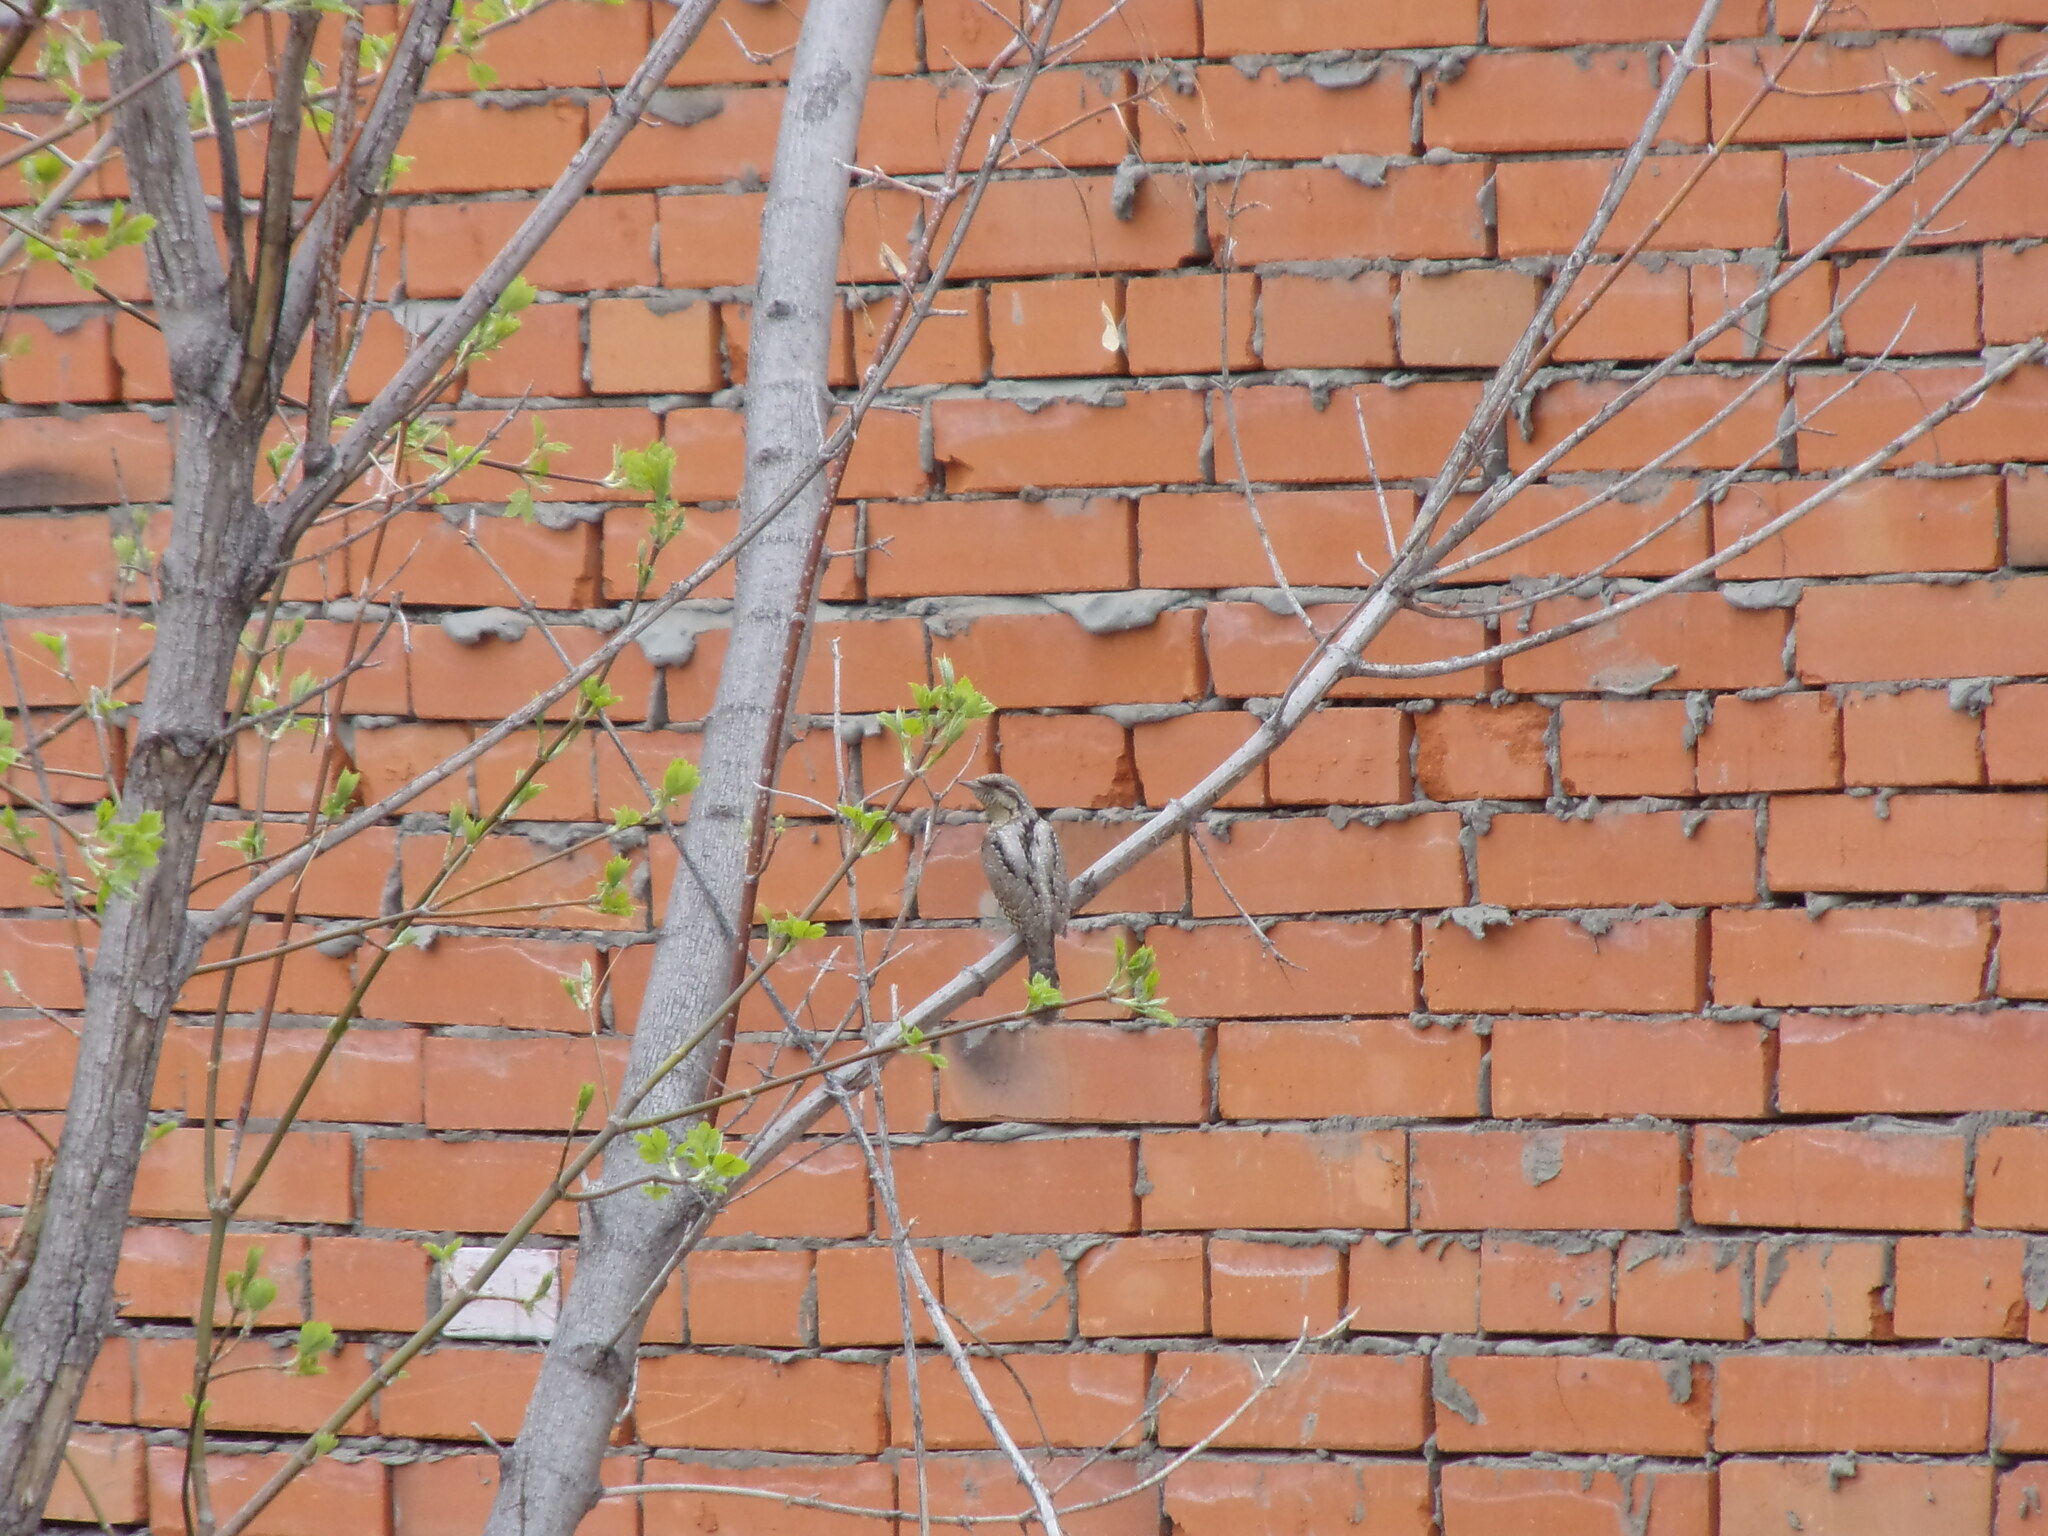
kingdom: Animalia
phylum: Chordata
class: Aves
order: Piciformes
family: Picidae
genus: Jynx
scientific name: Jynx torquilla
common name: Eurasian wryneck
